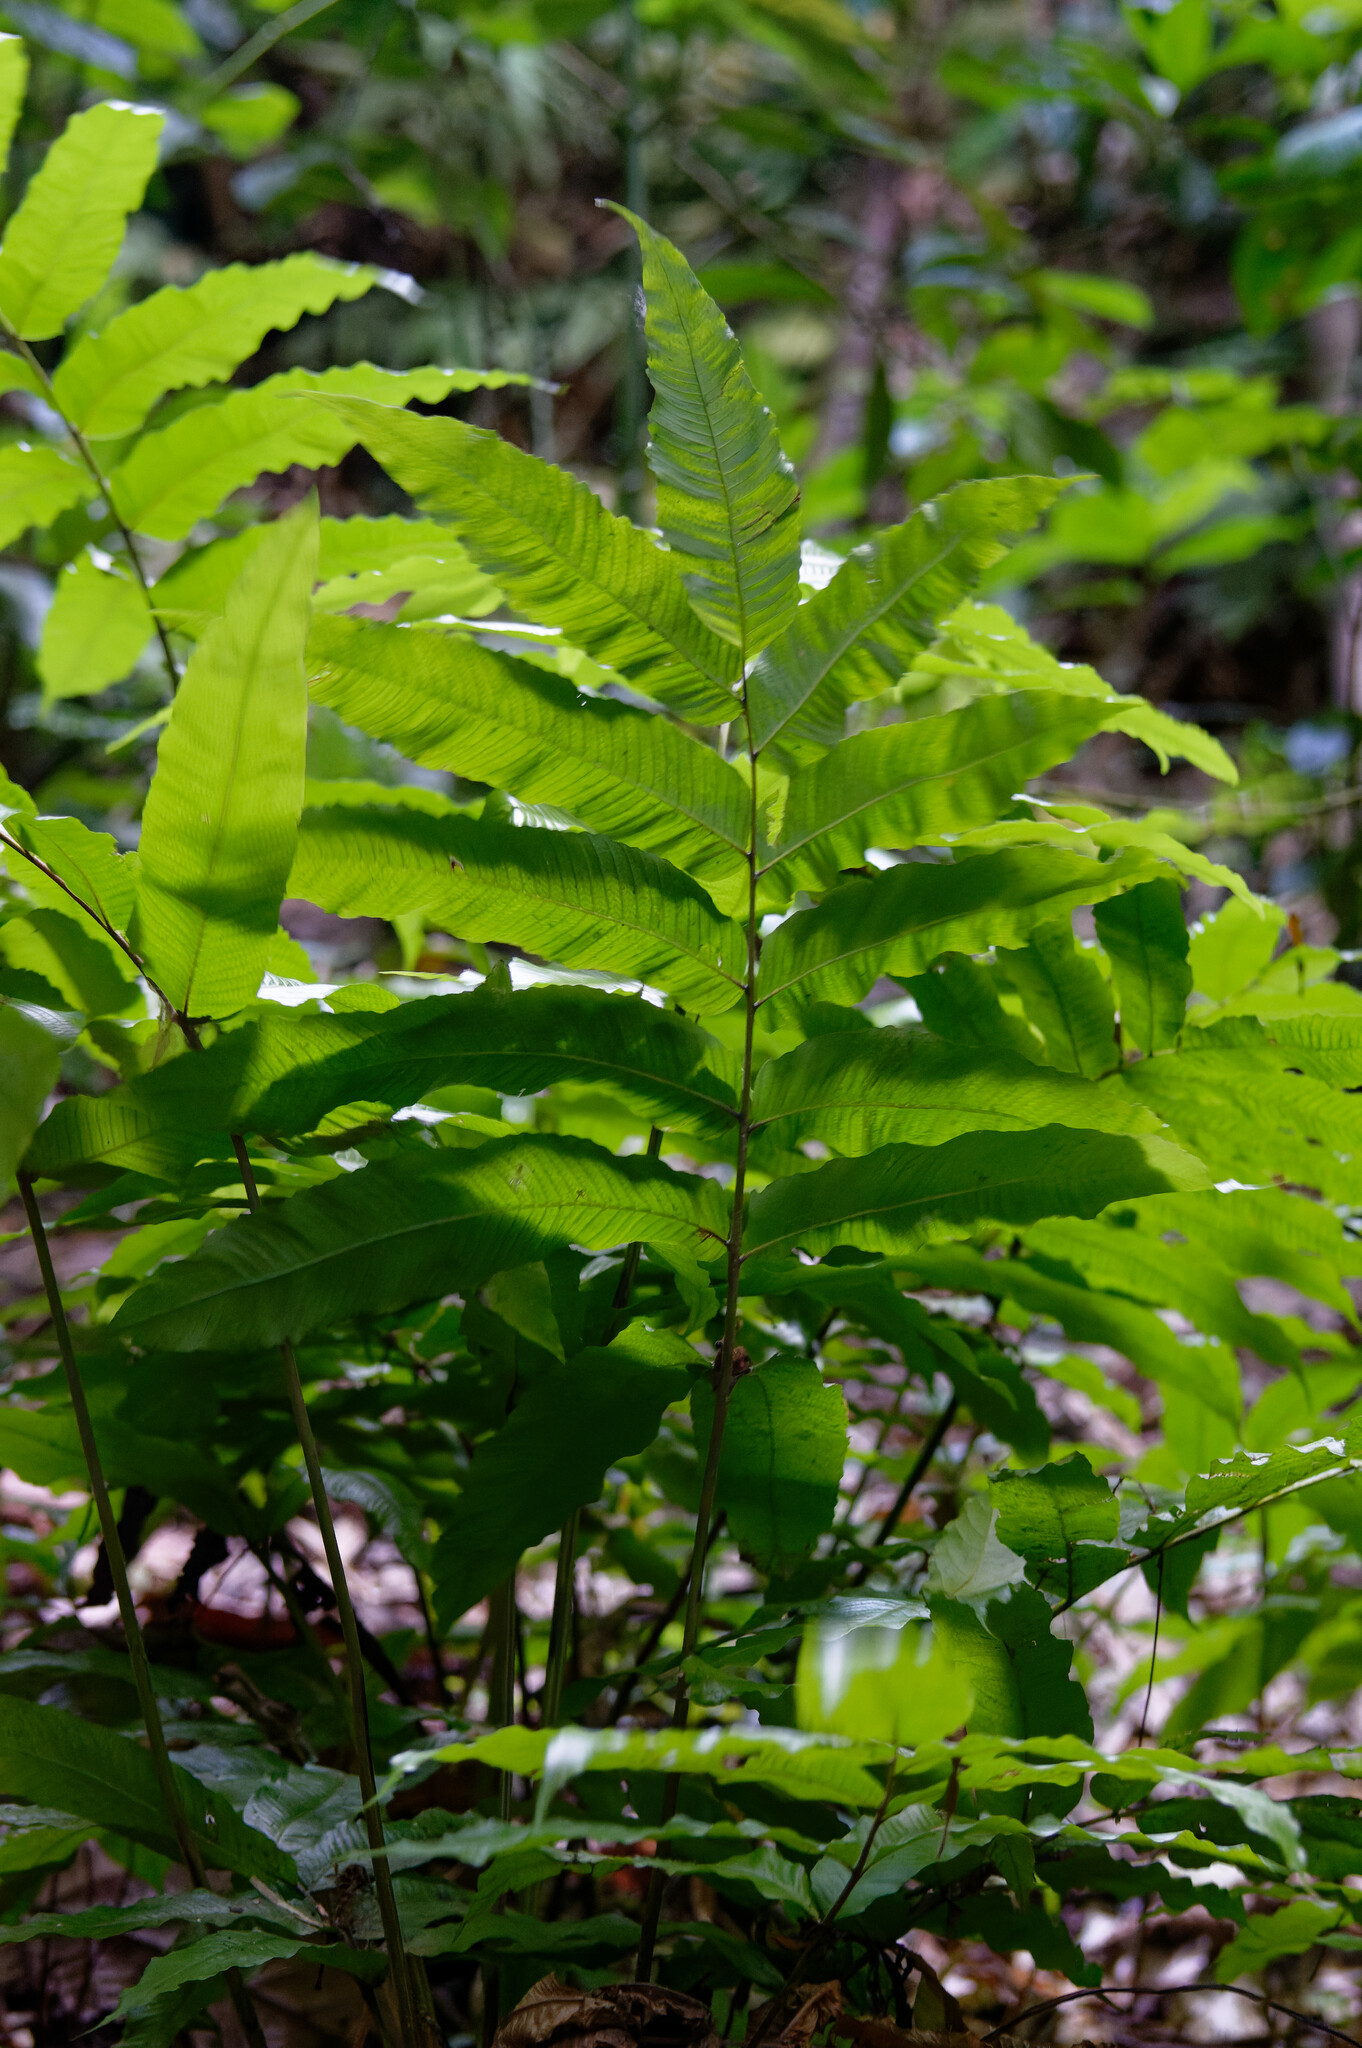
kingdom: Plantae
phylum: Tracheophyta
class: Polypodiopsida
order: Polypodiales
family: Thelypteridaceae
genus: Meniscium
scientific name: Meniscium reticulatum
